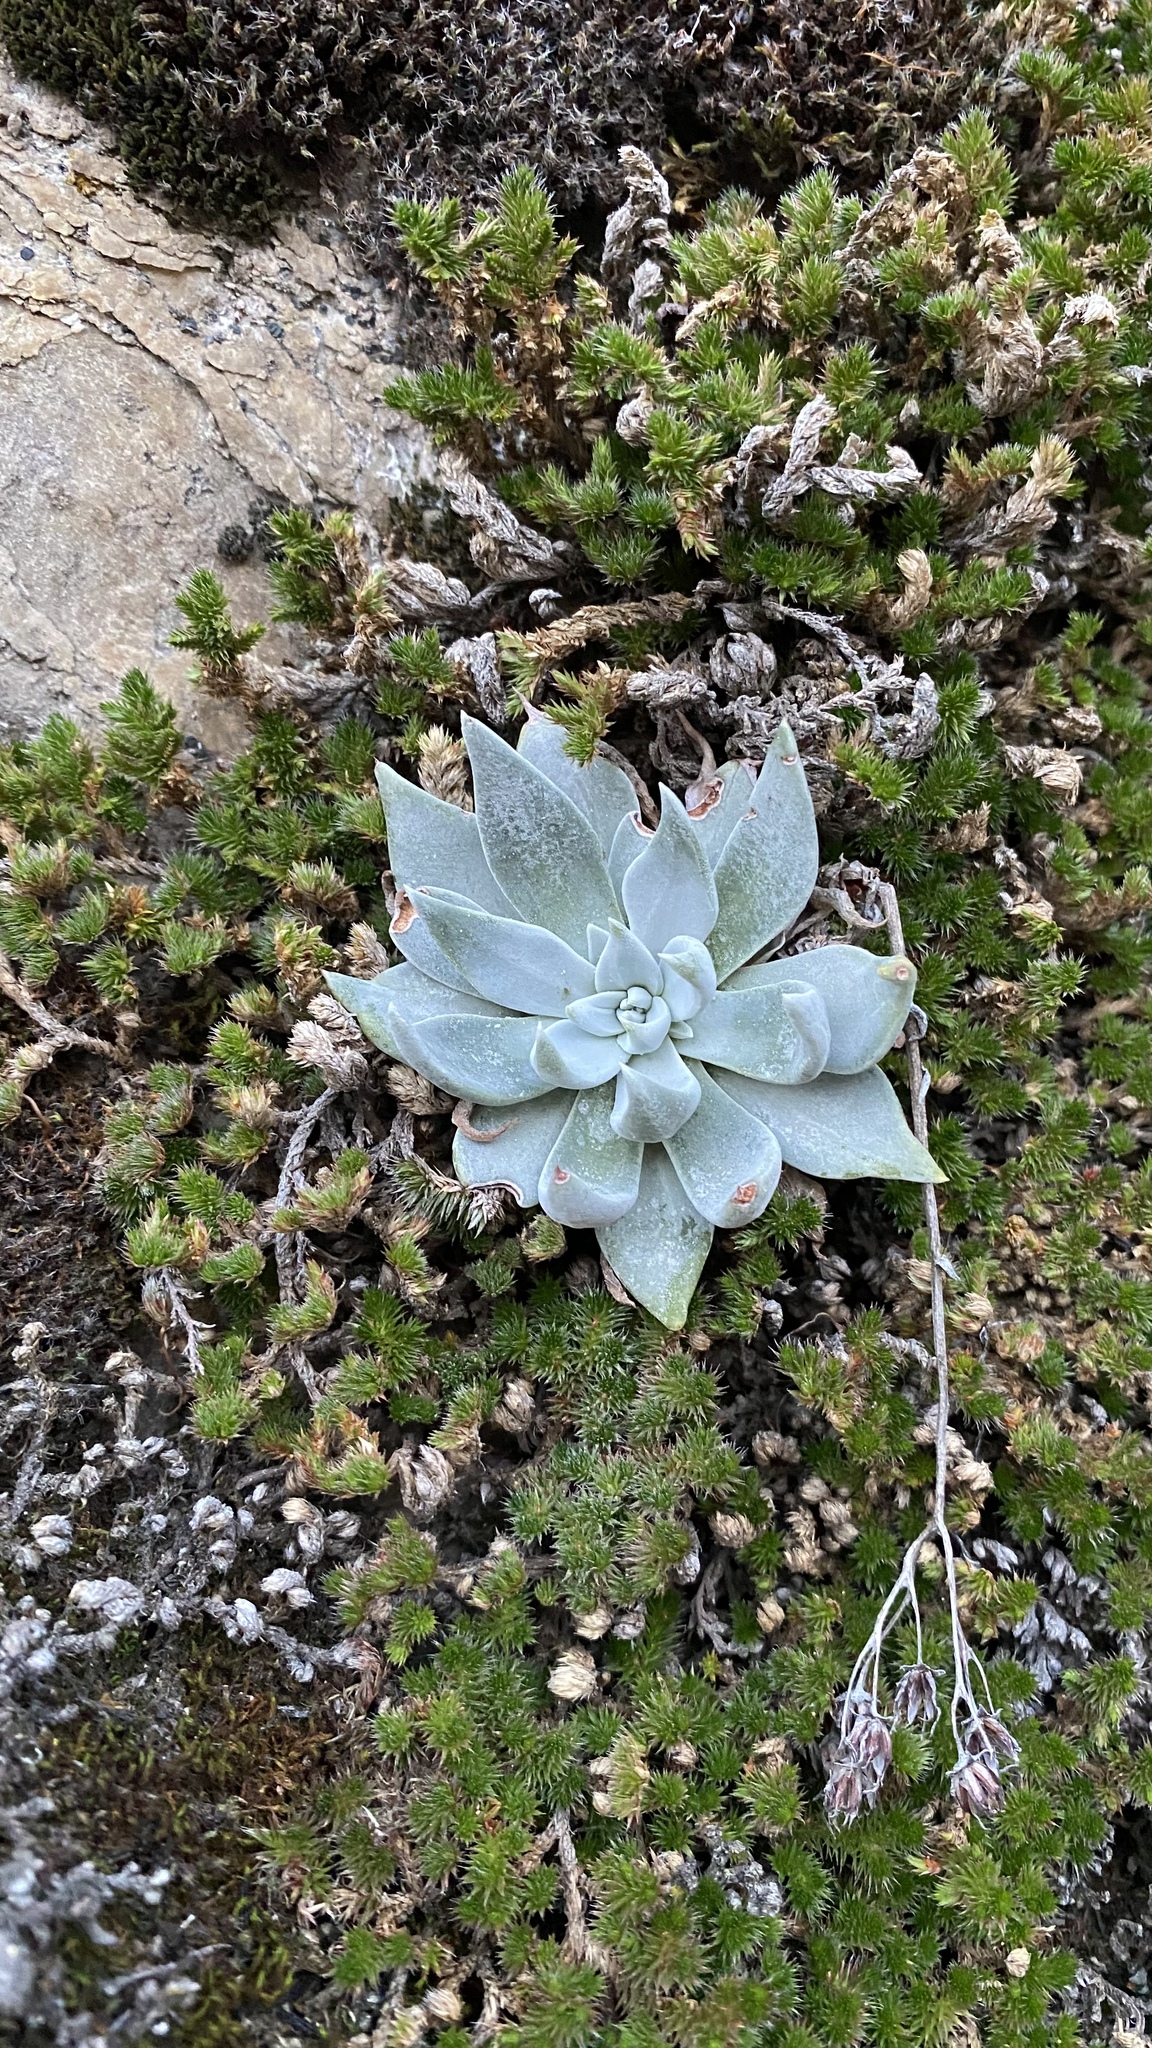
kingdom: Plantae
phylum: Tracheophyta
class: Magnoliopsida
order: Saxifragales
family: Crassulaceae
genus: Dudleya
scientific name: Dudleya cymosa
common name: Canyon dudleya
